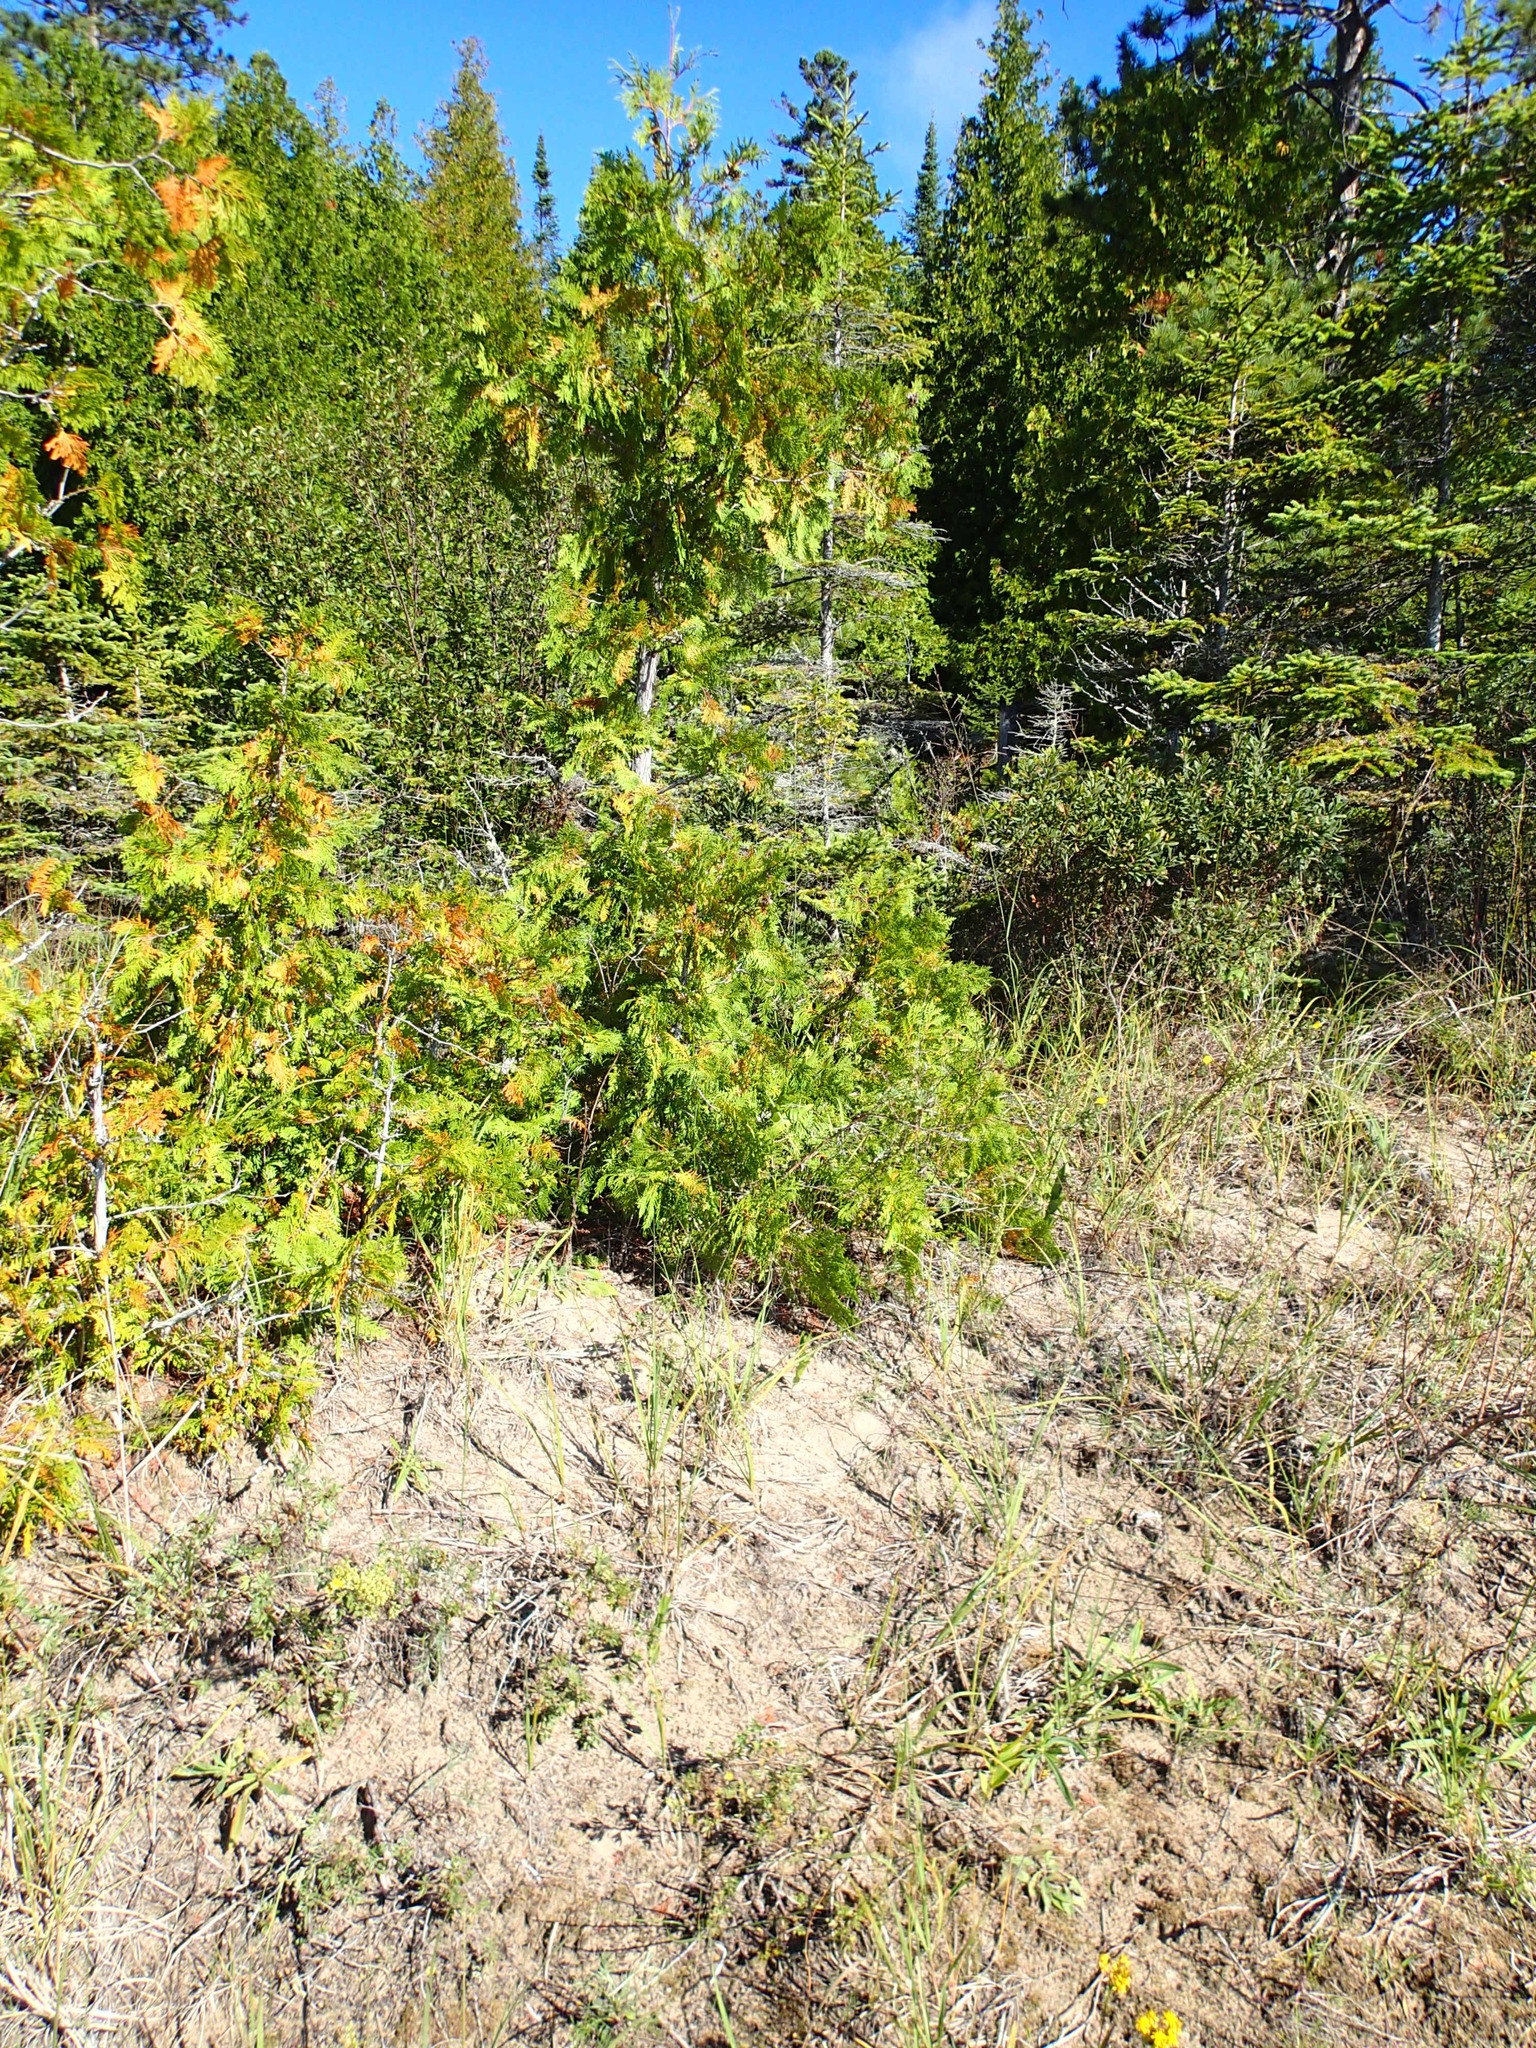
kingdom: Plantae
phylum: Tracheophyta
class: Pinopsida
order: Pinales
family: Cupressaceae
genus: Thuja
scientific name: Thuja occidentalis
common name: Northern white-cedar
